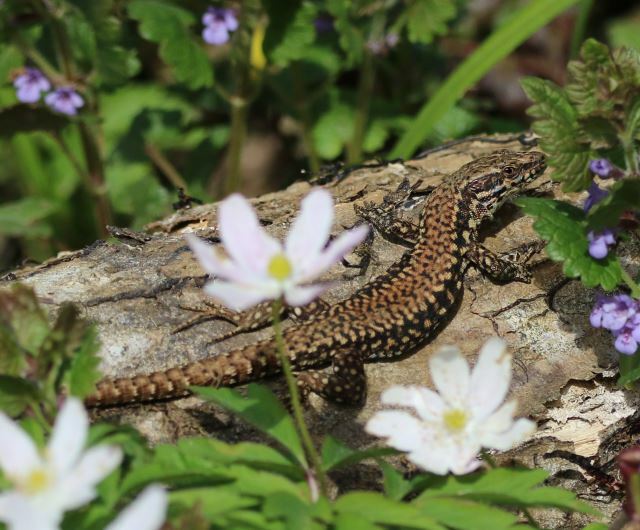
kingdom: Animalia
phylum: Chordata
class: Squamata
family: Lacertidae
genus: Podarcis
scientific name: Podarcis muralis
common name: Common wall lizard
